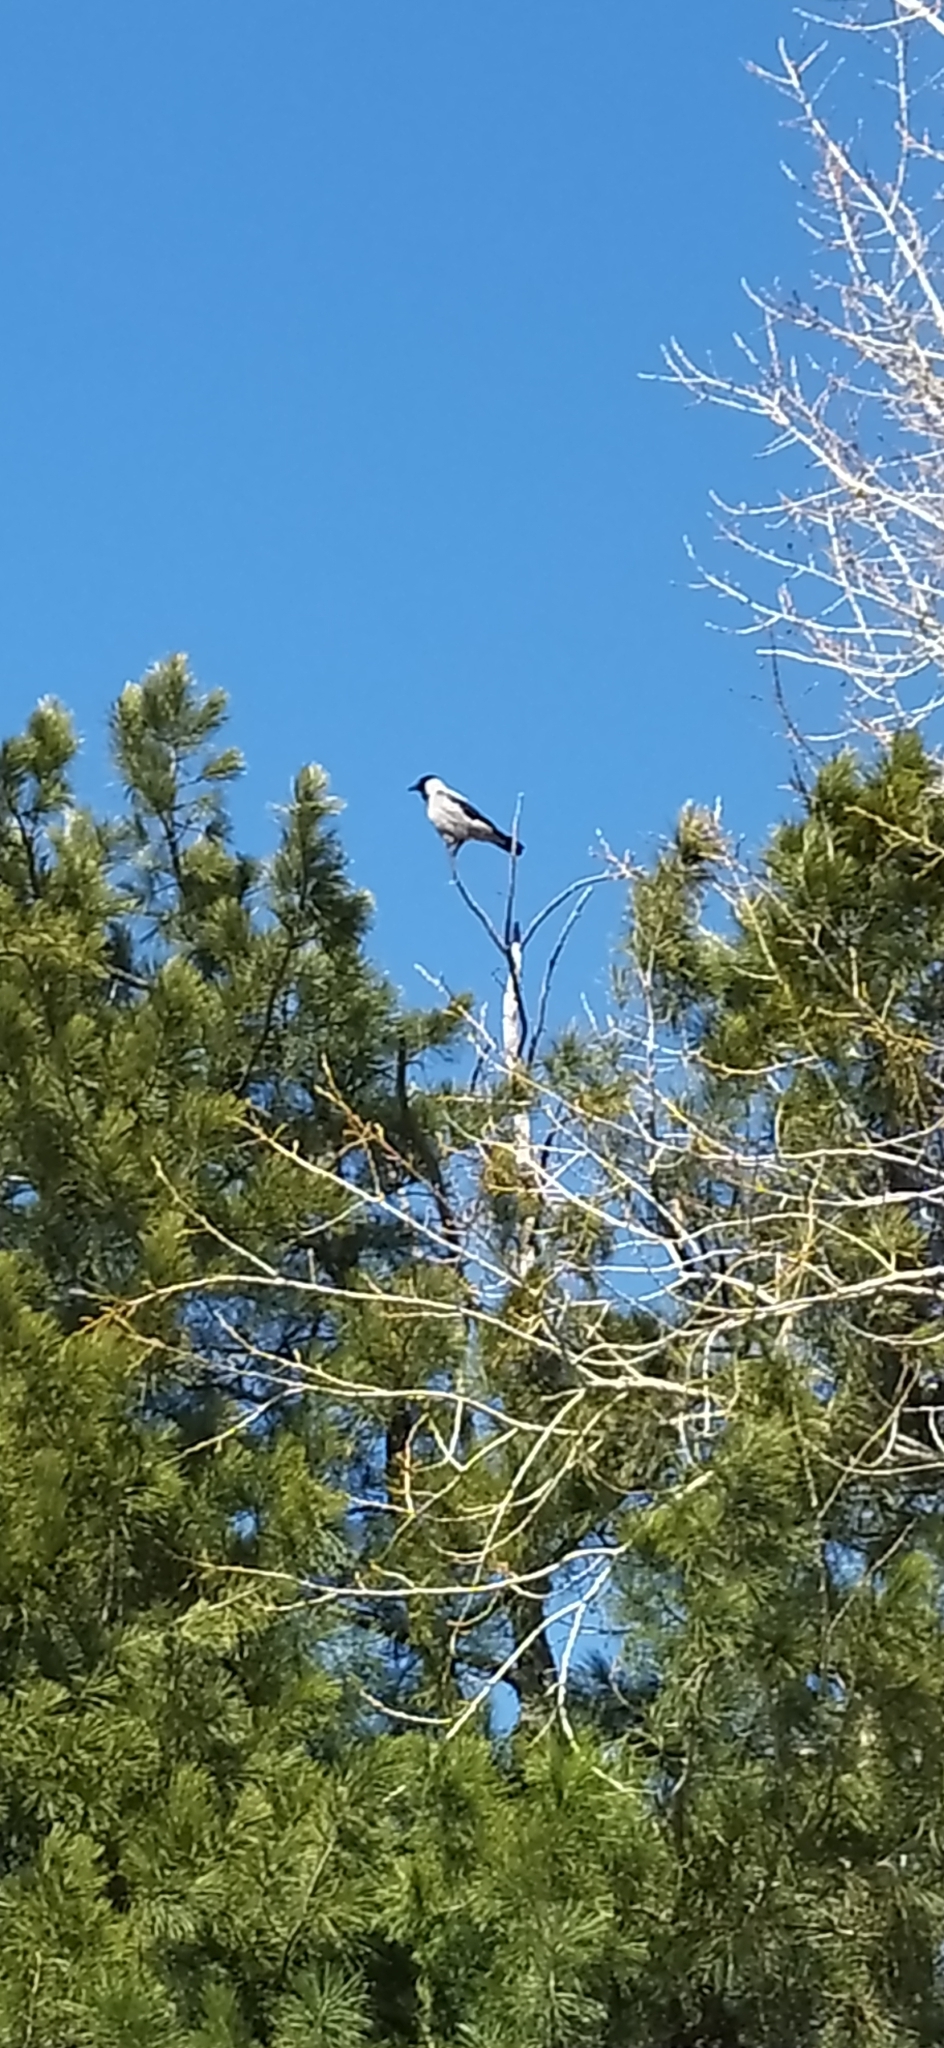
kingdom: Animalia
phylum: Chordata
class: Aves
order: Passeriformes
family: Corvidae
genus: Corvus
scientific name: Corvus cornix
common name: Hooded crow
